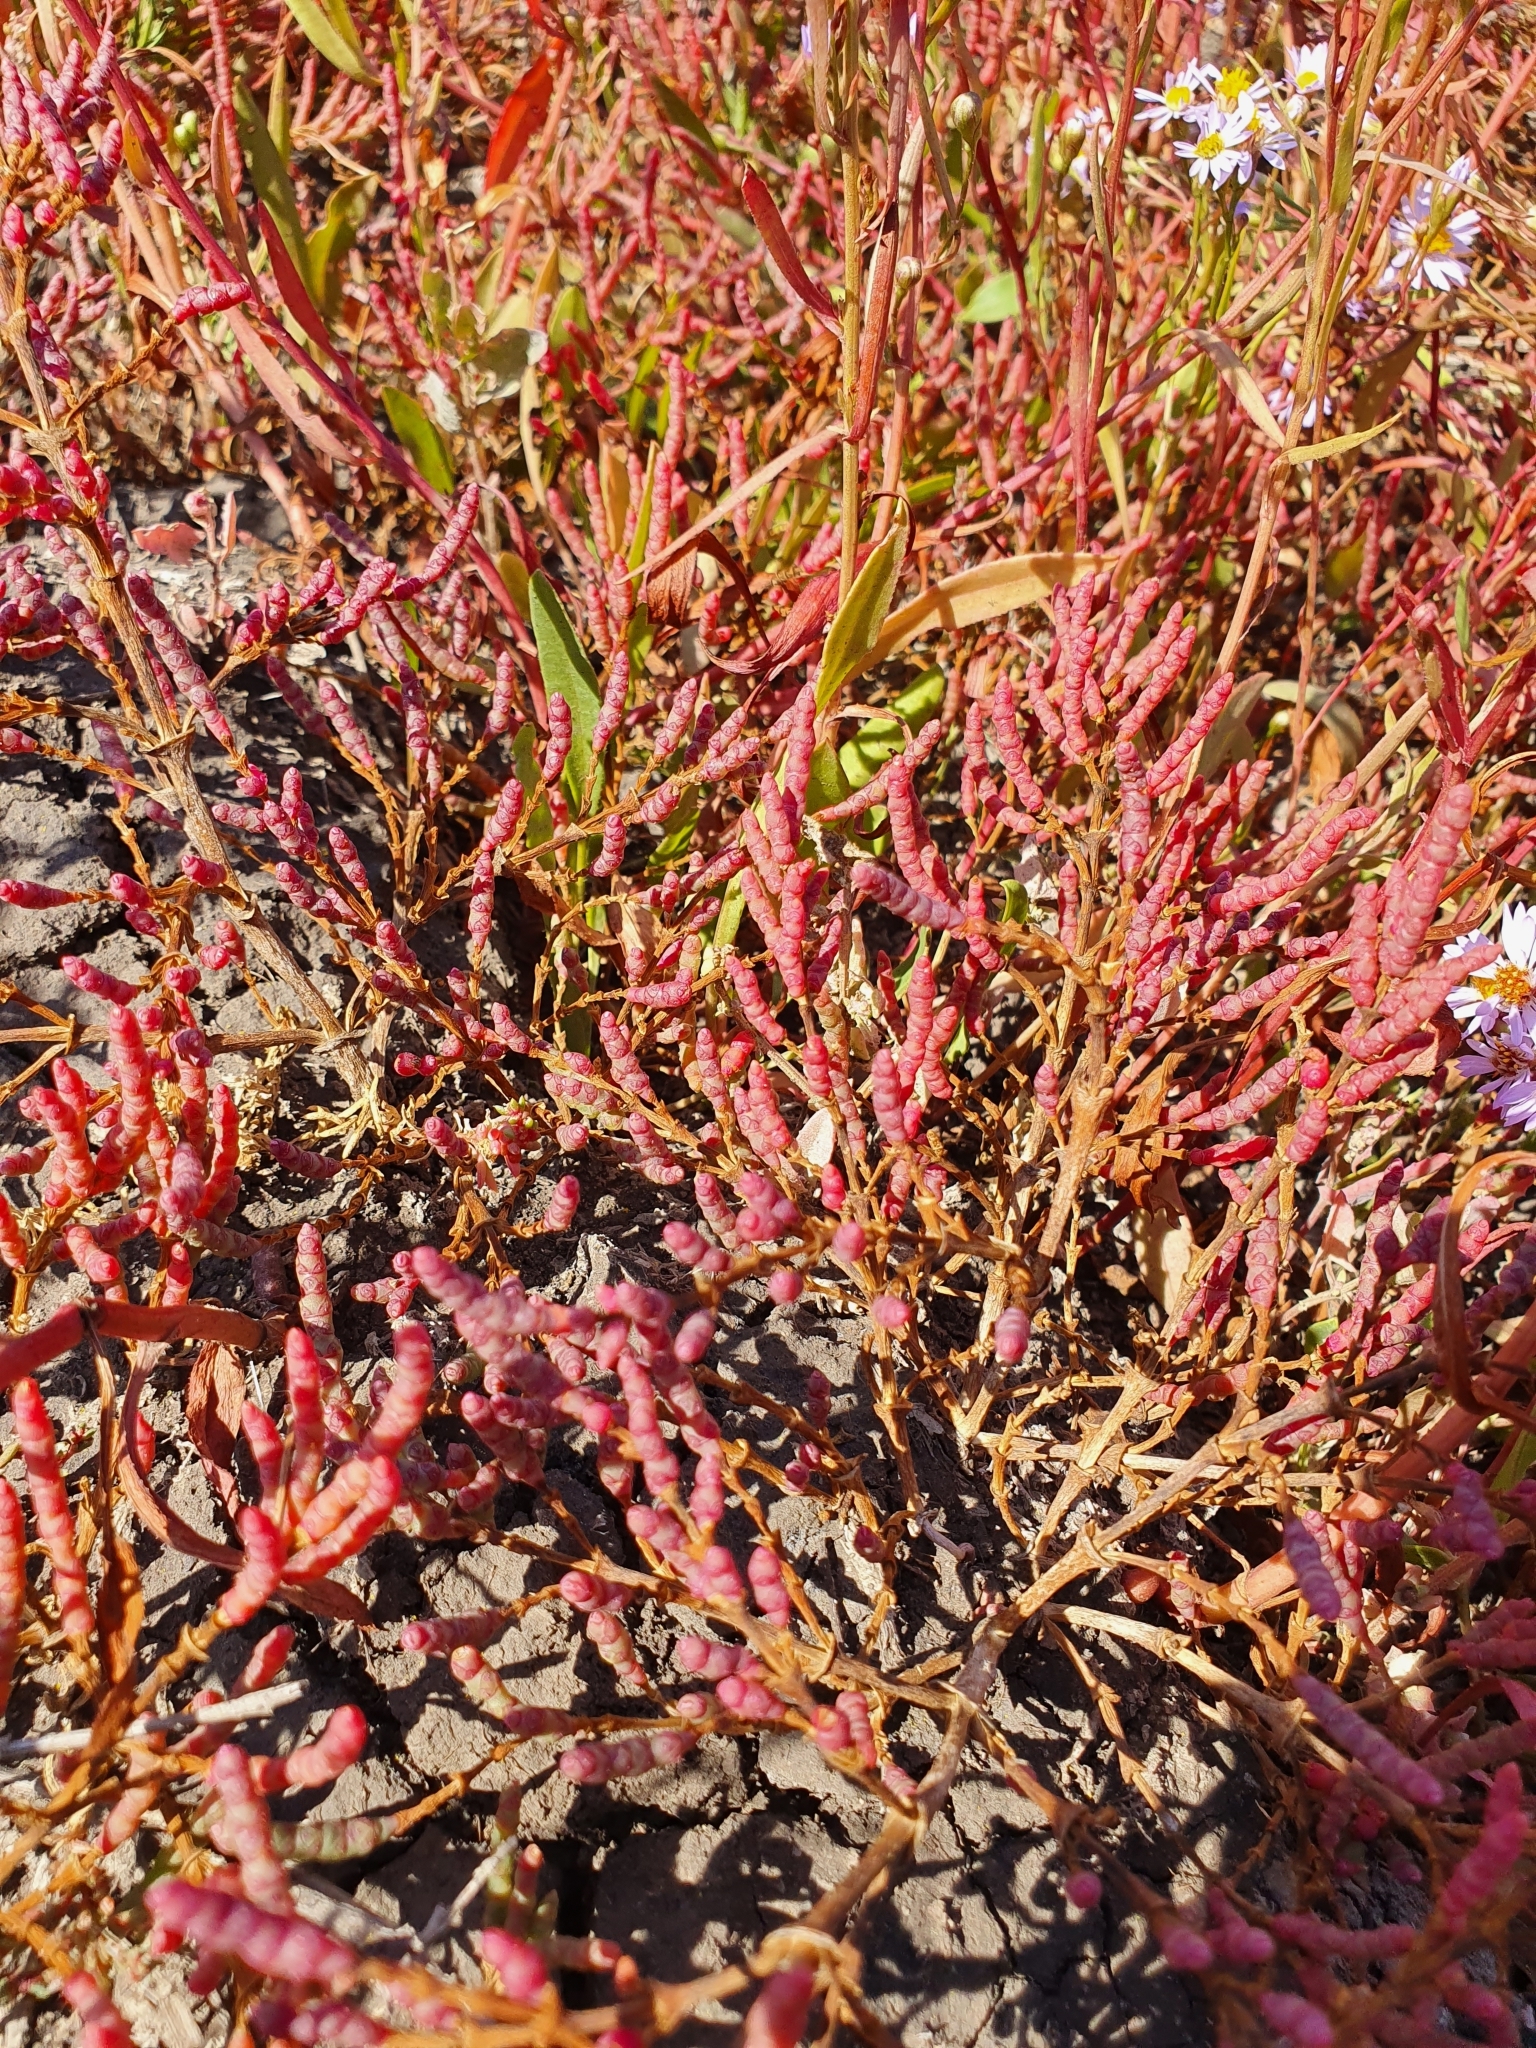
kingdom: Plantae
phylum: Tracheophyta
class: Magnoliopsida
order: Caryophyllales
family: Amaranthaceae
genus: Salicornia
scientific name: Salicornia europaea
